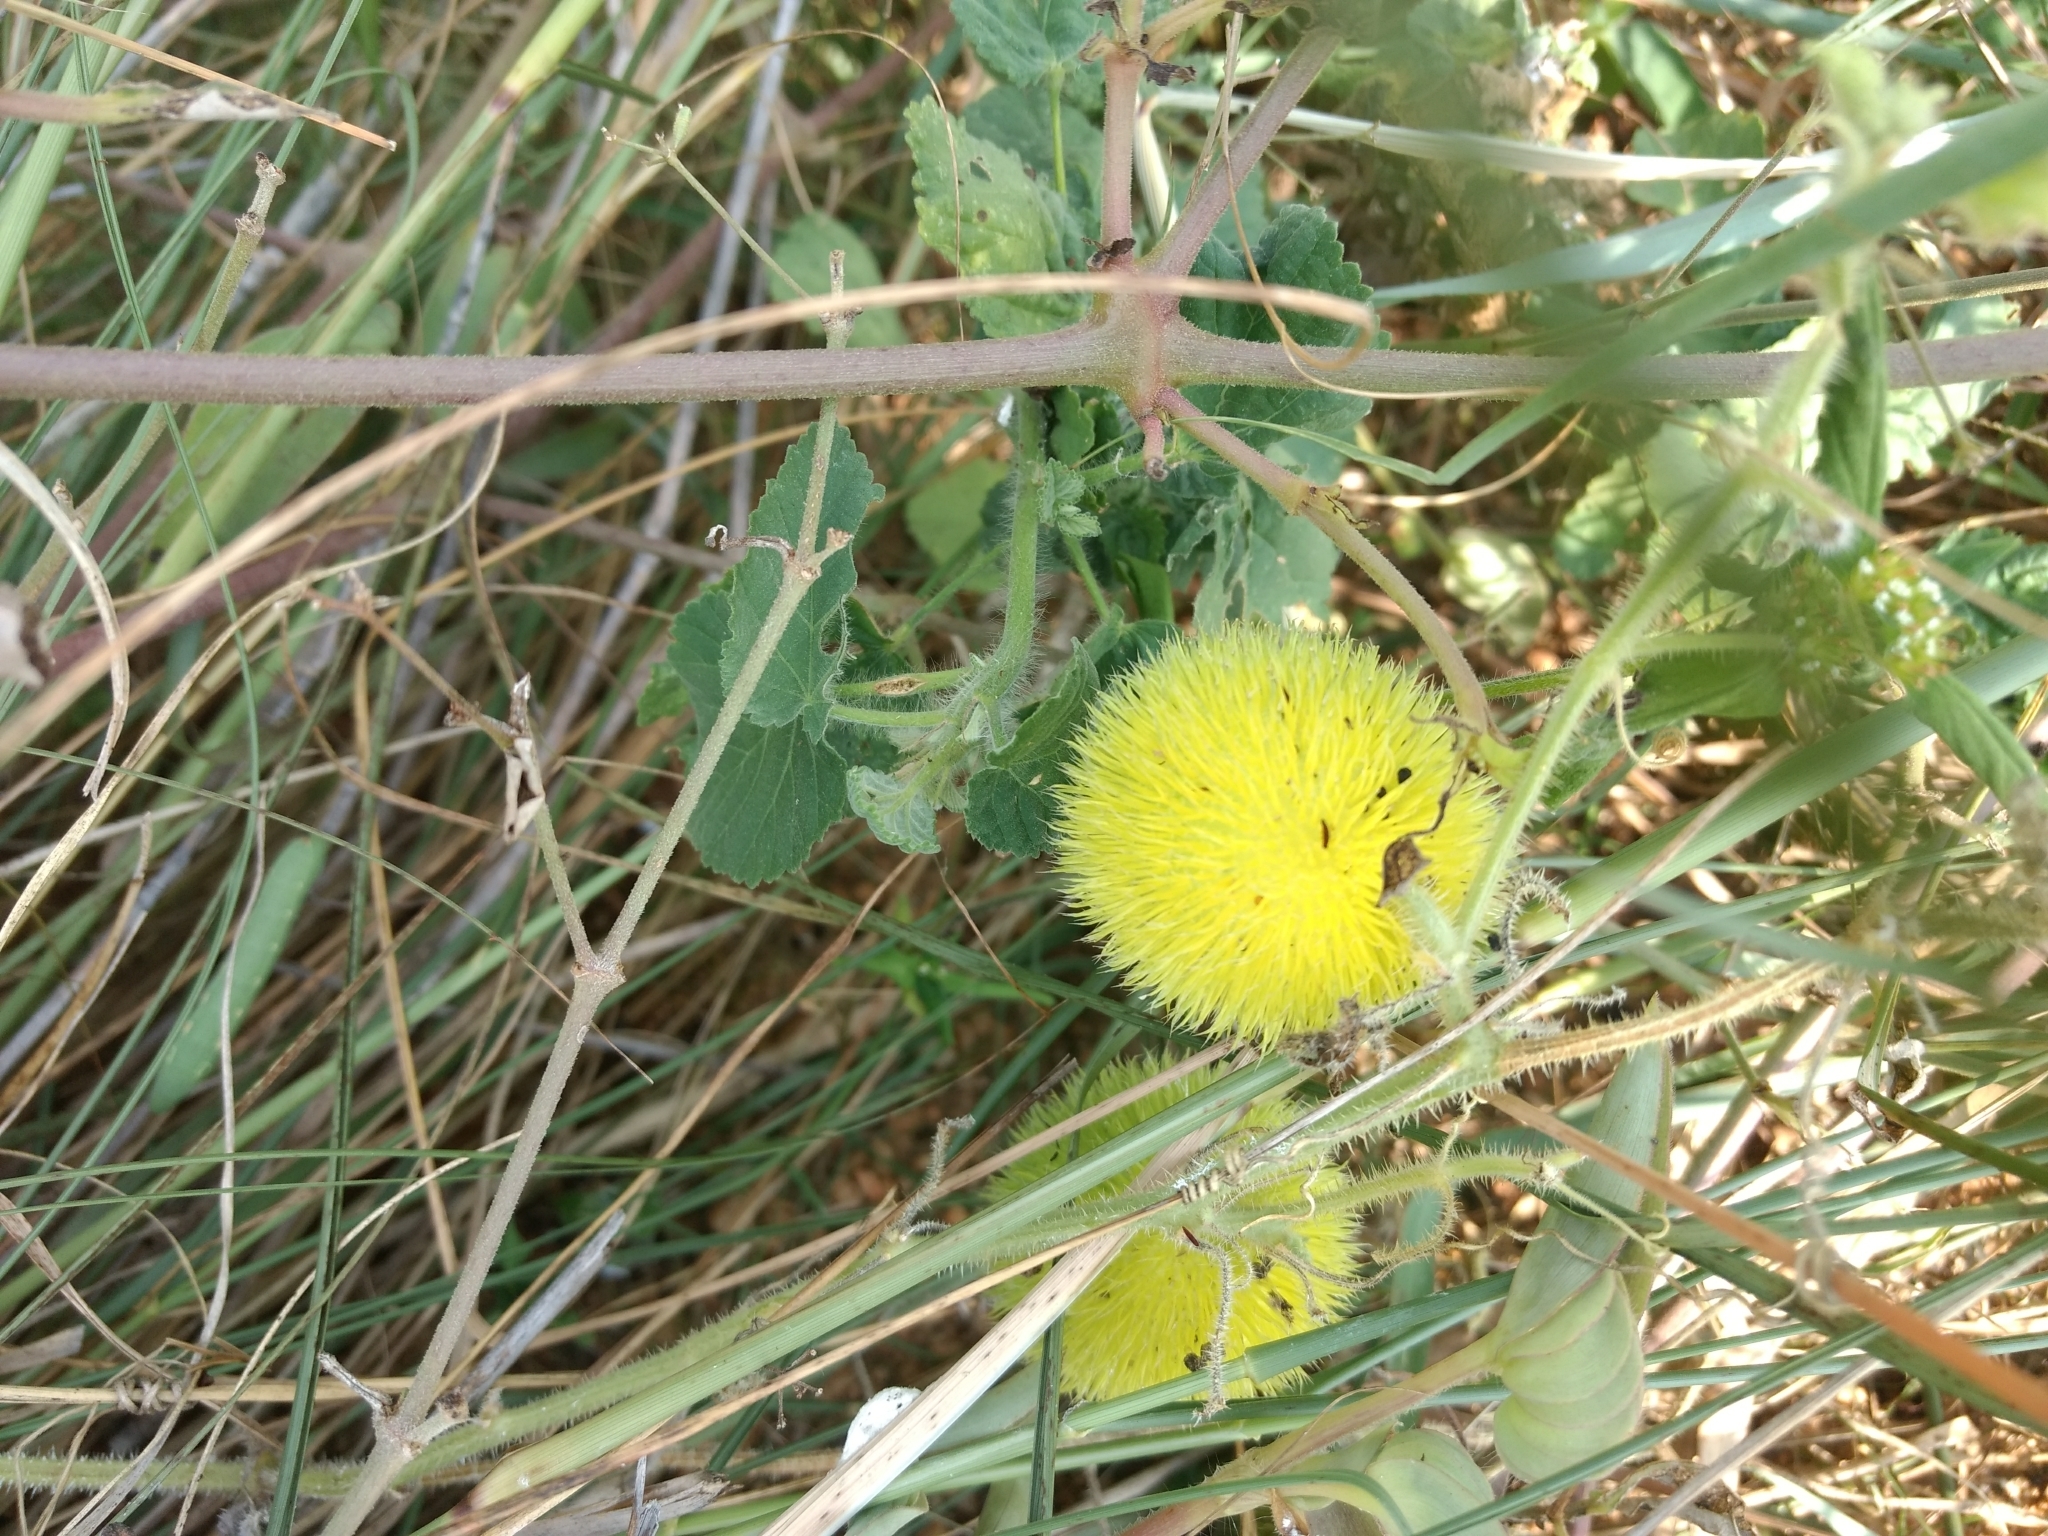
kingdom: Plantae
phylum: Tracheophyta
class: Magnoliopsida
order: Cucurbitales
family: Cucurbitaceae
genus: Cucumis
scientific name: Cucumis dipsaceus
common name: Hedgehog gourd
